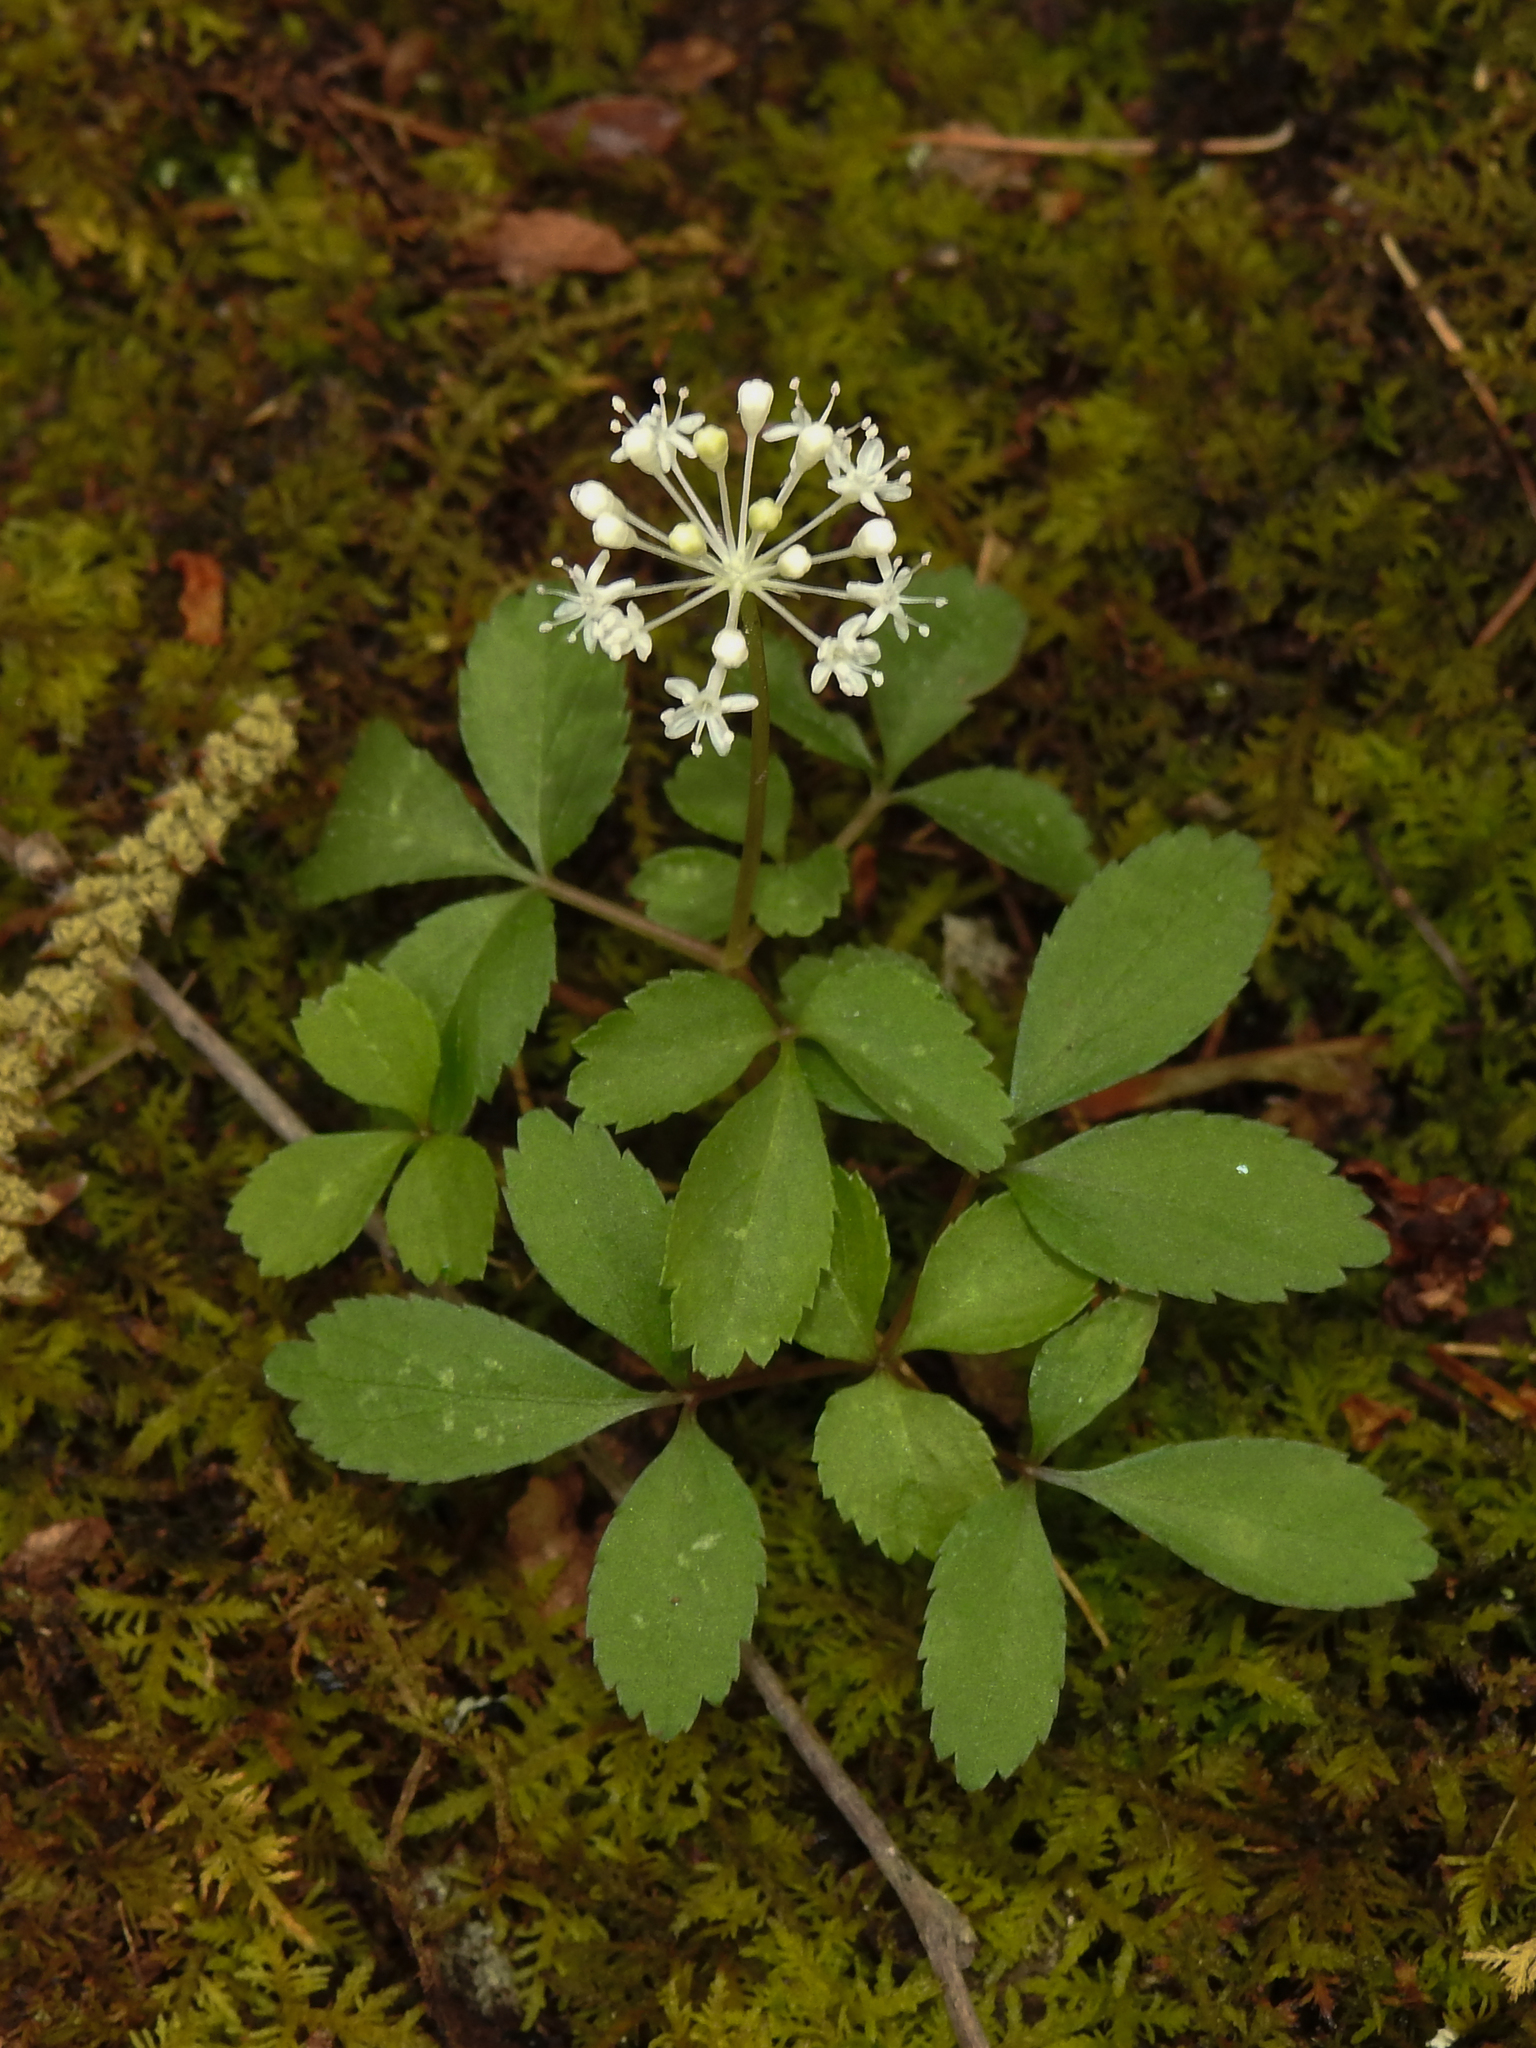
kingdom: Plantae
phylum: Tracheophyta
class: Magnoliopsida
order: Apiales
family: Araliaceae
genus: Panax
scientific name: Panax trifolius
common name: Dwarf ginseng
